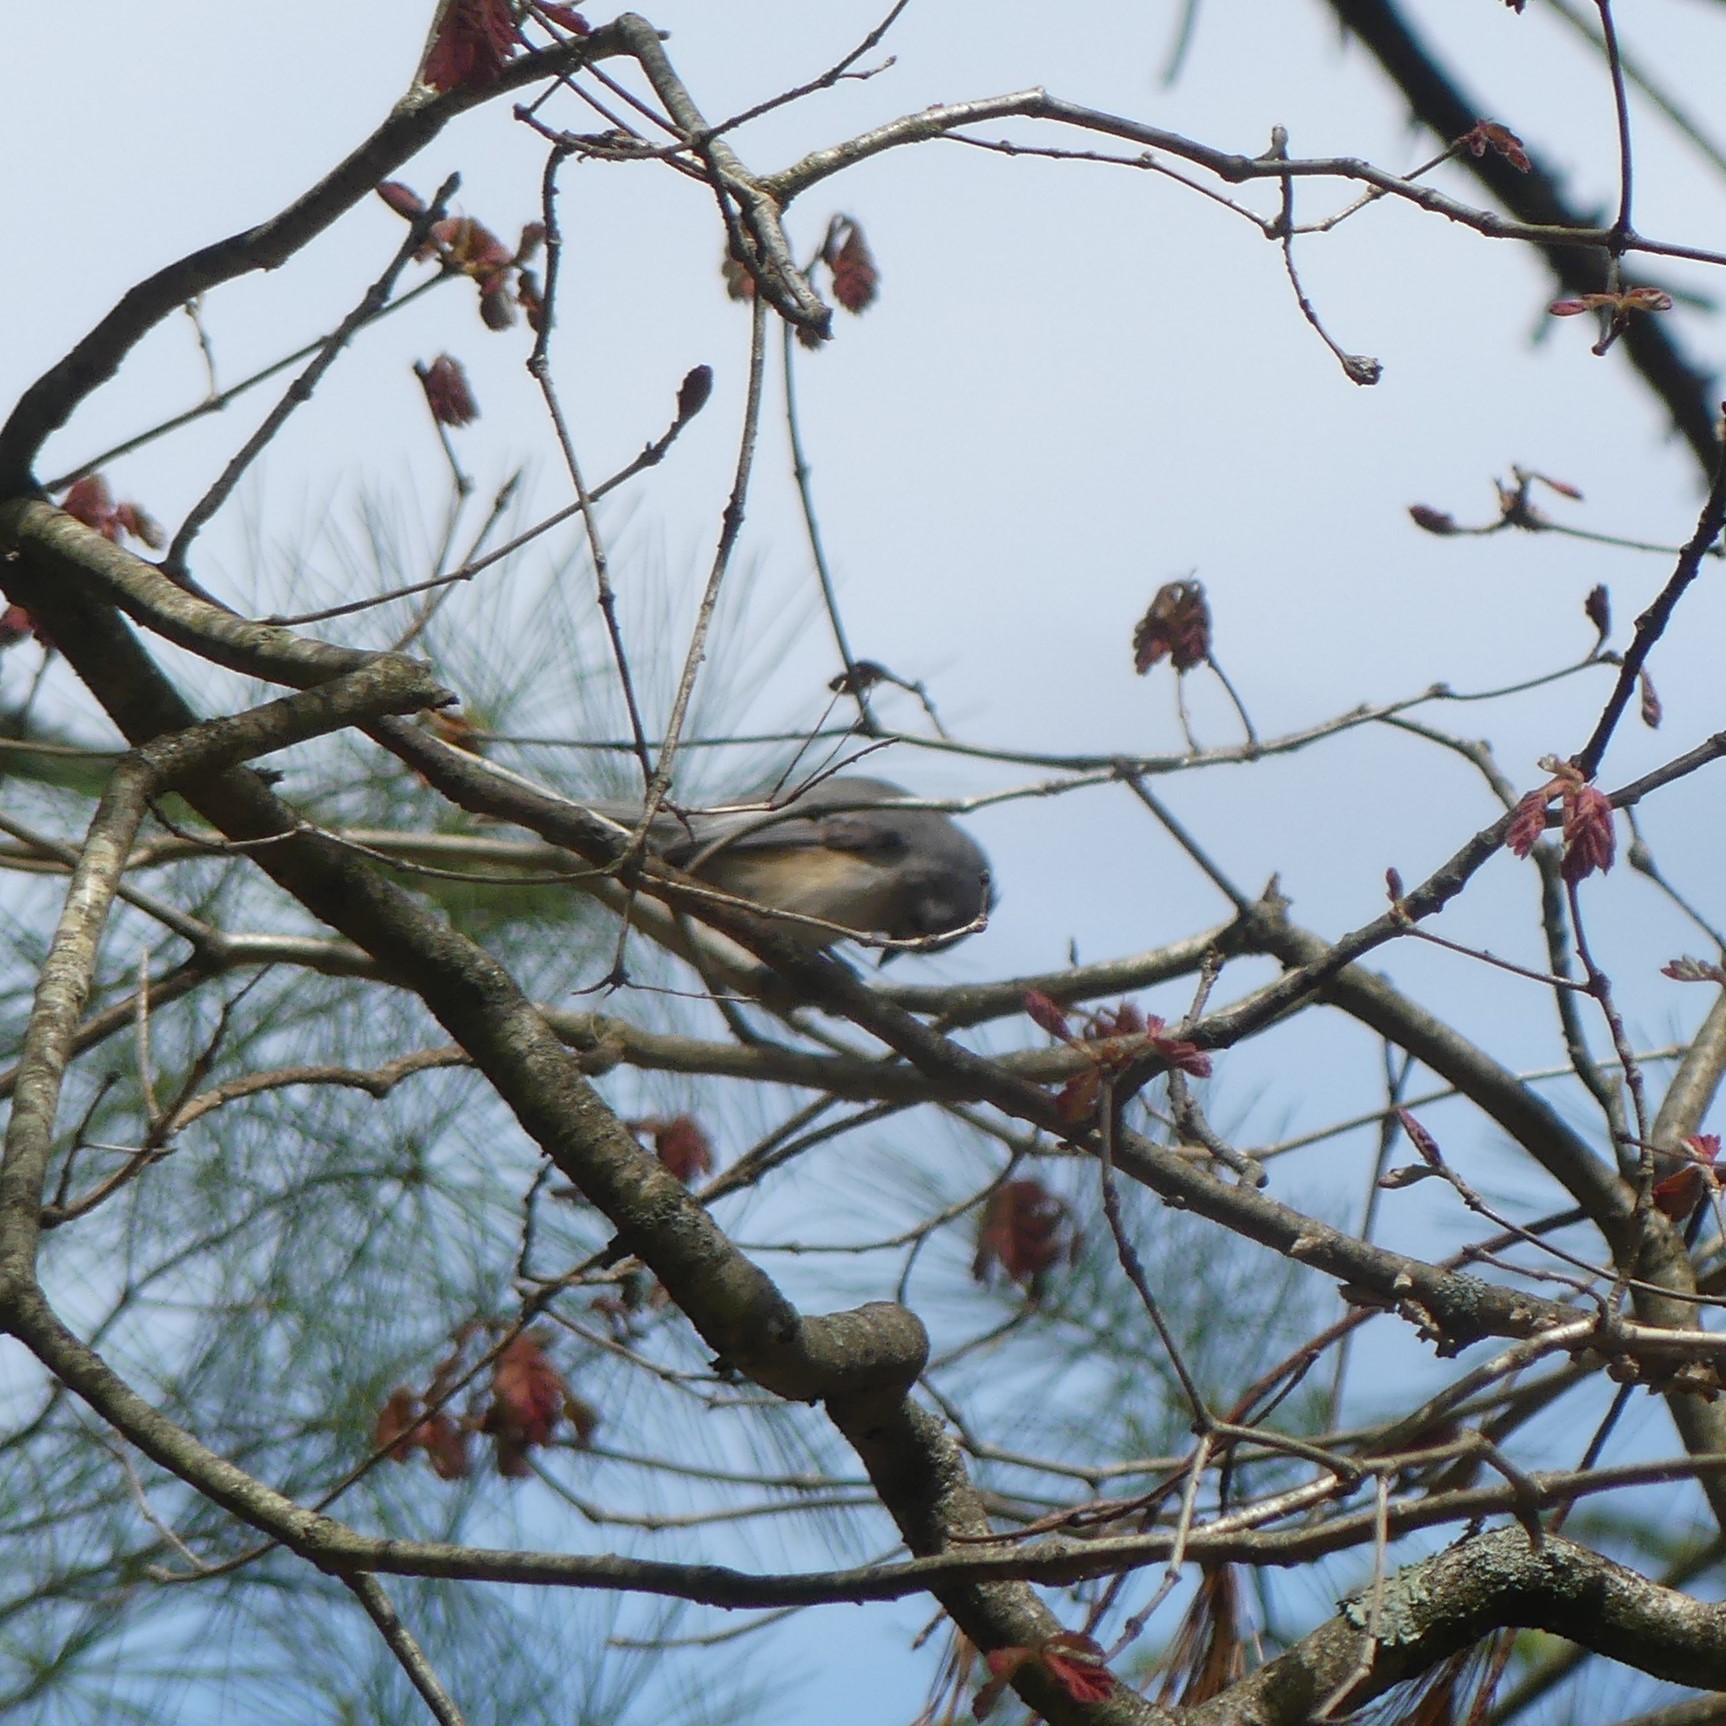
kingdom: Animalia
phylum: Chordata
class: Aves
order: Passeriformes
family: Paridae
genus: Baeolophus
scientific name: Baeolophus bicolor
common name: Tufted titmouse
